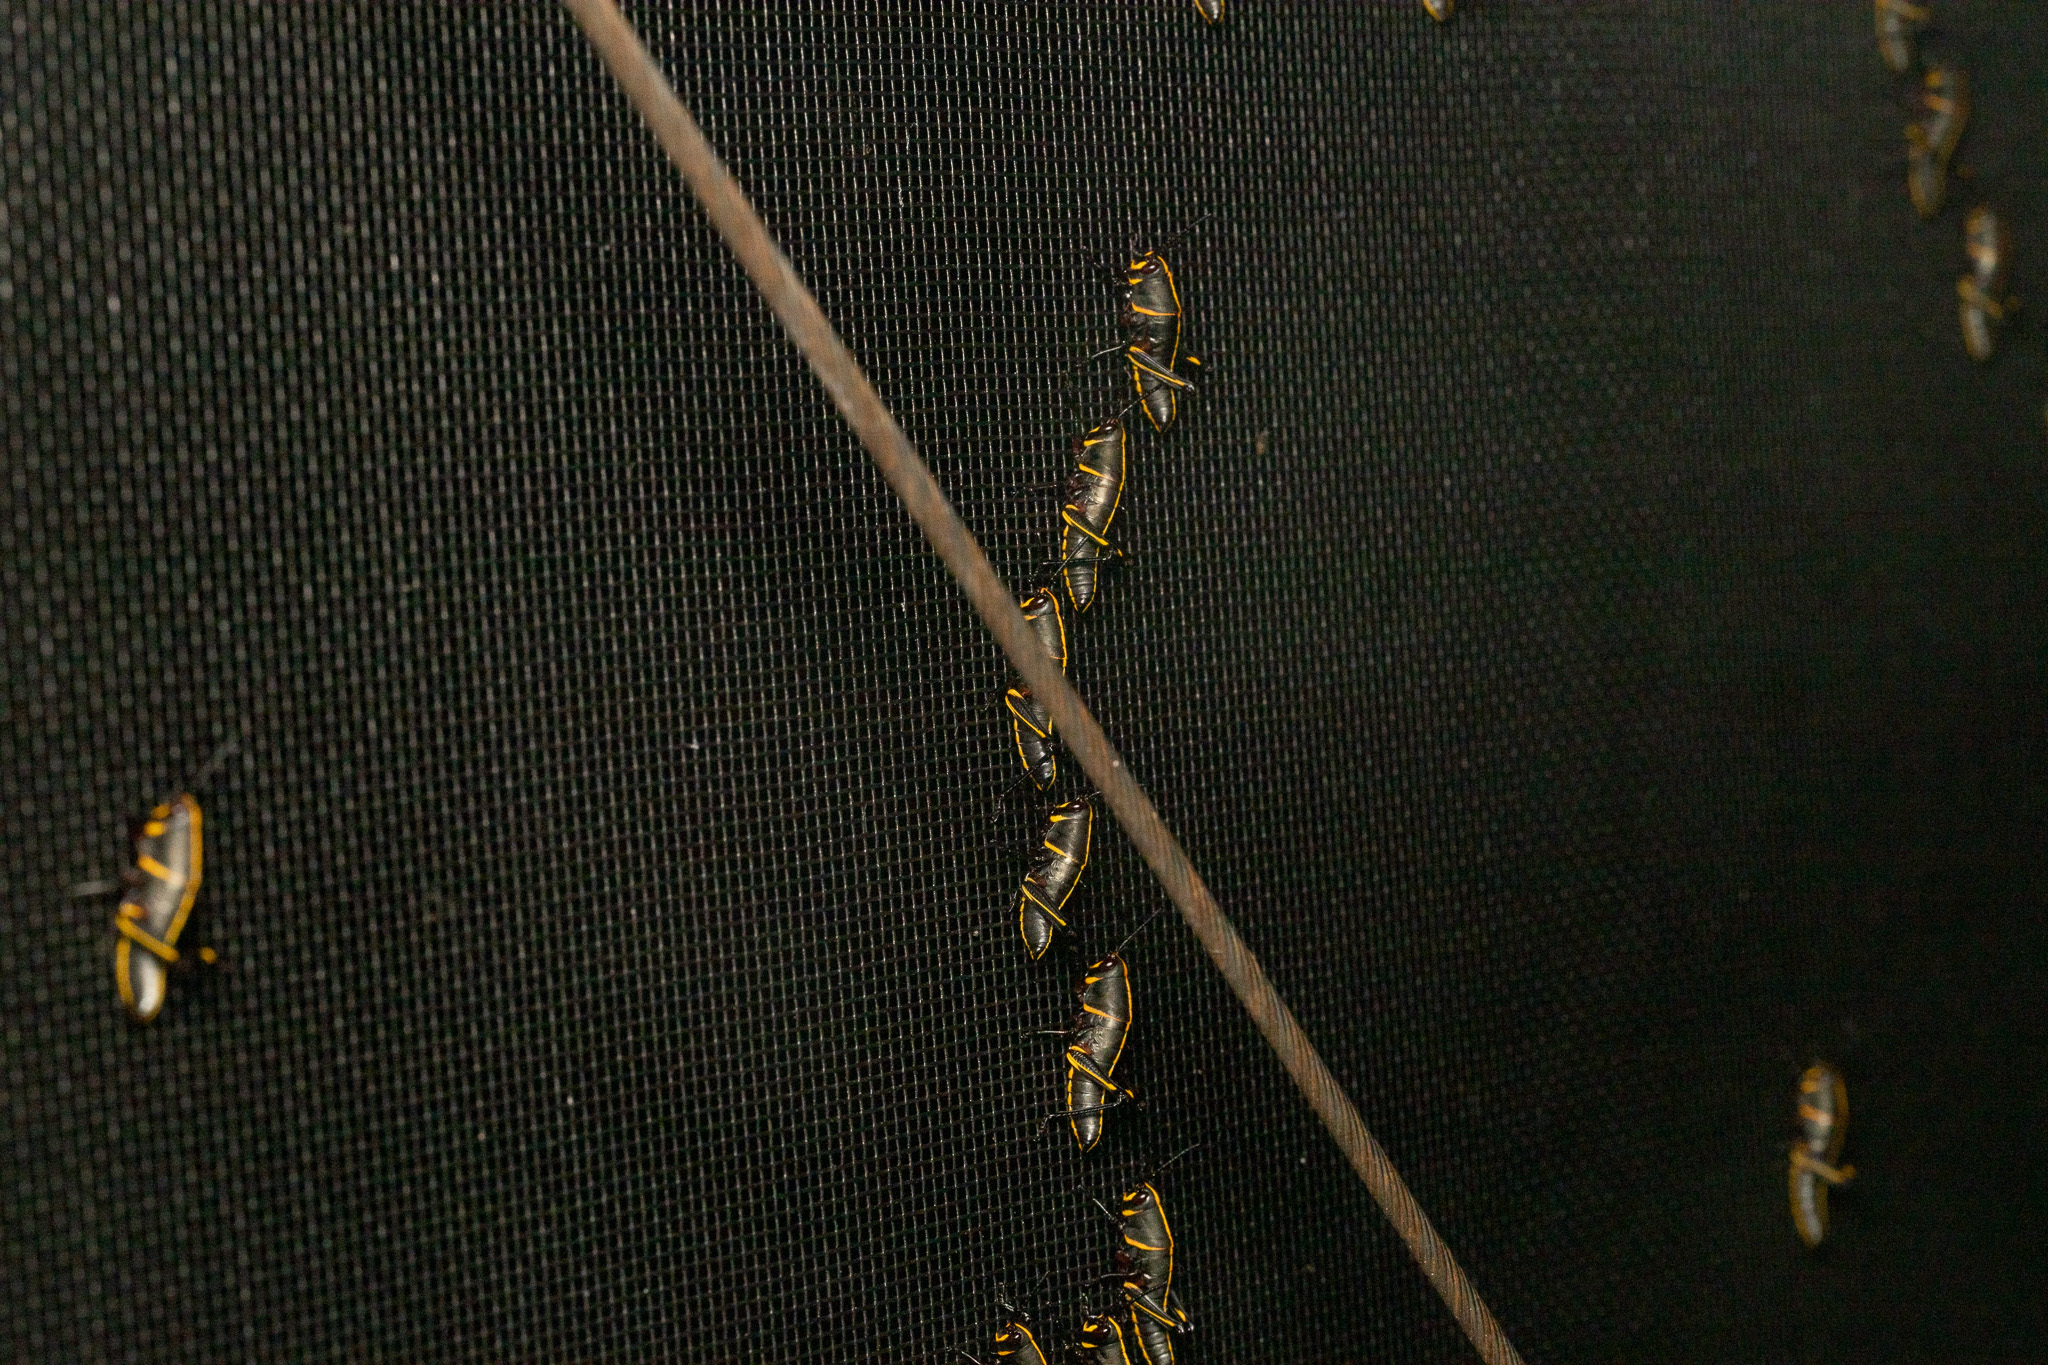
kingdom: Animalia
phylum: Arthropoda
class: Insecta
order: Orthoptera
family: Romaleidae
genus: Romalea
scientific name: Romalea microptera
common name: Eastern lubber grasshopper
